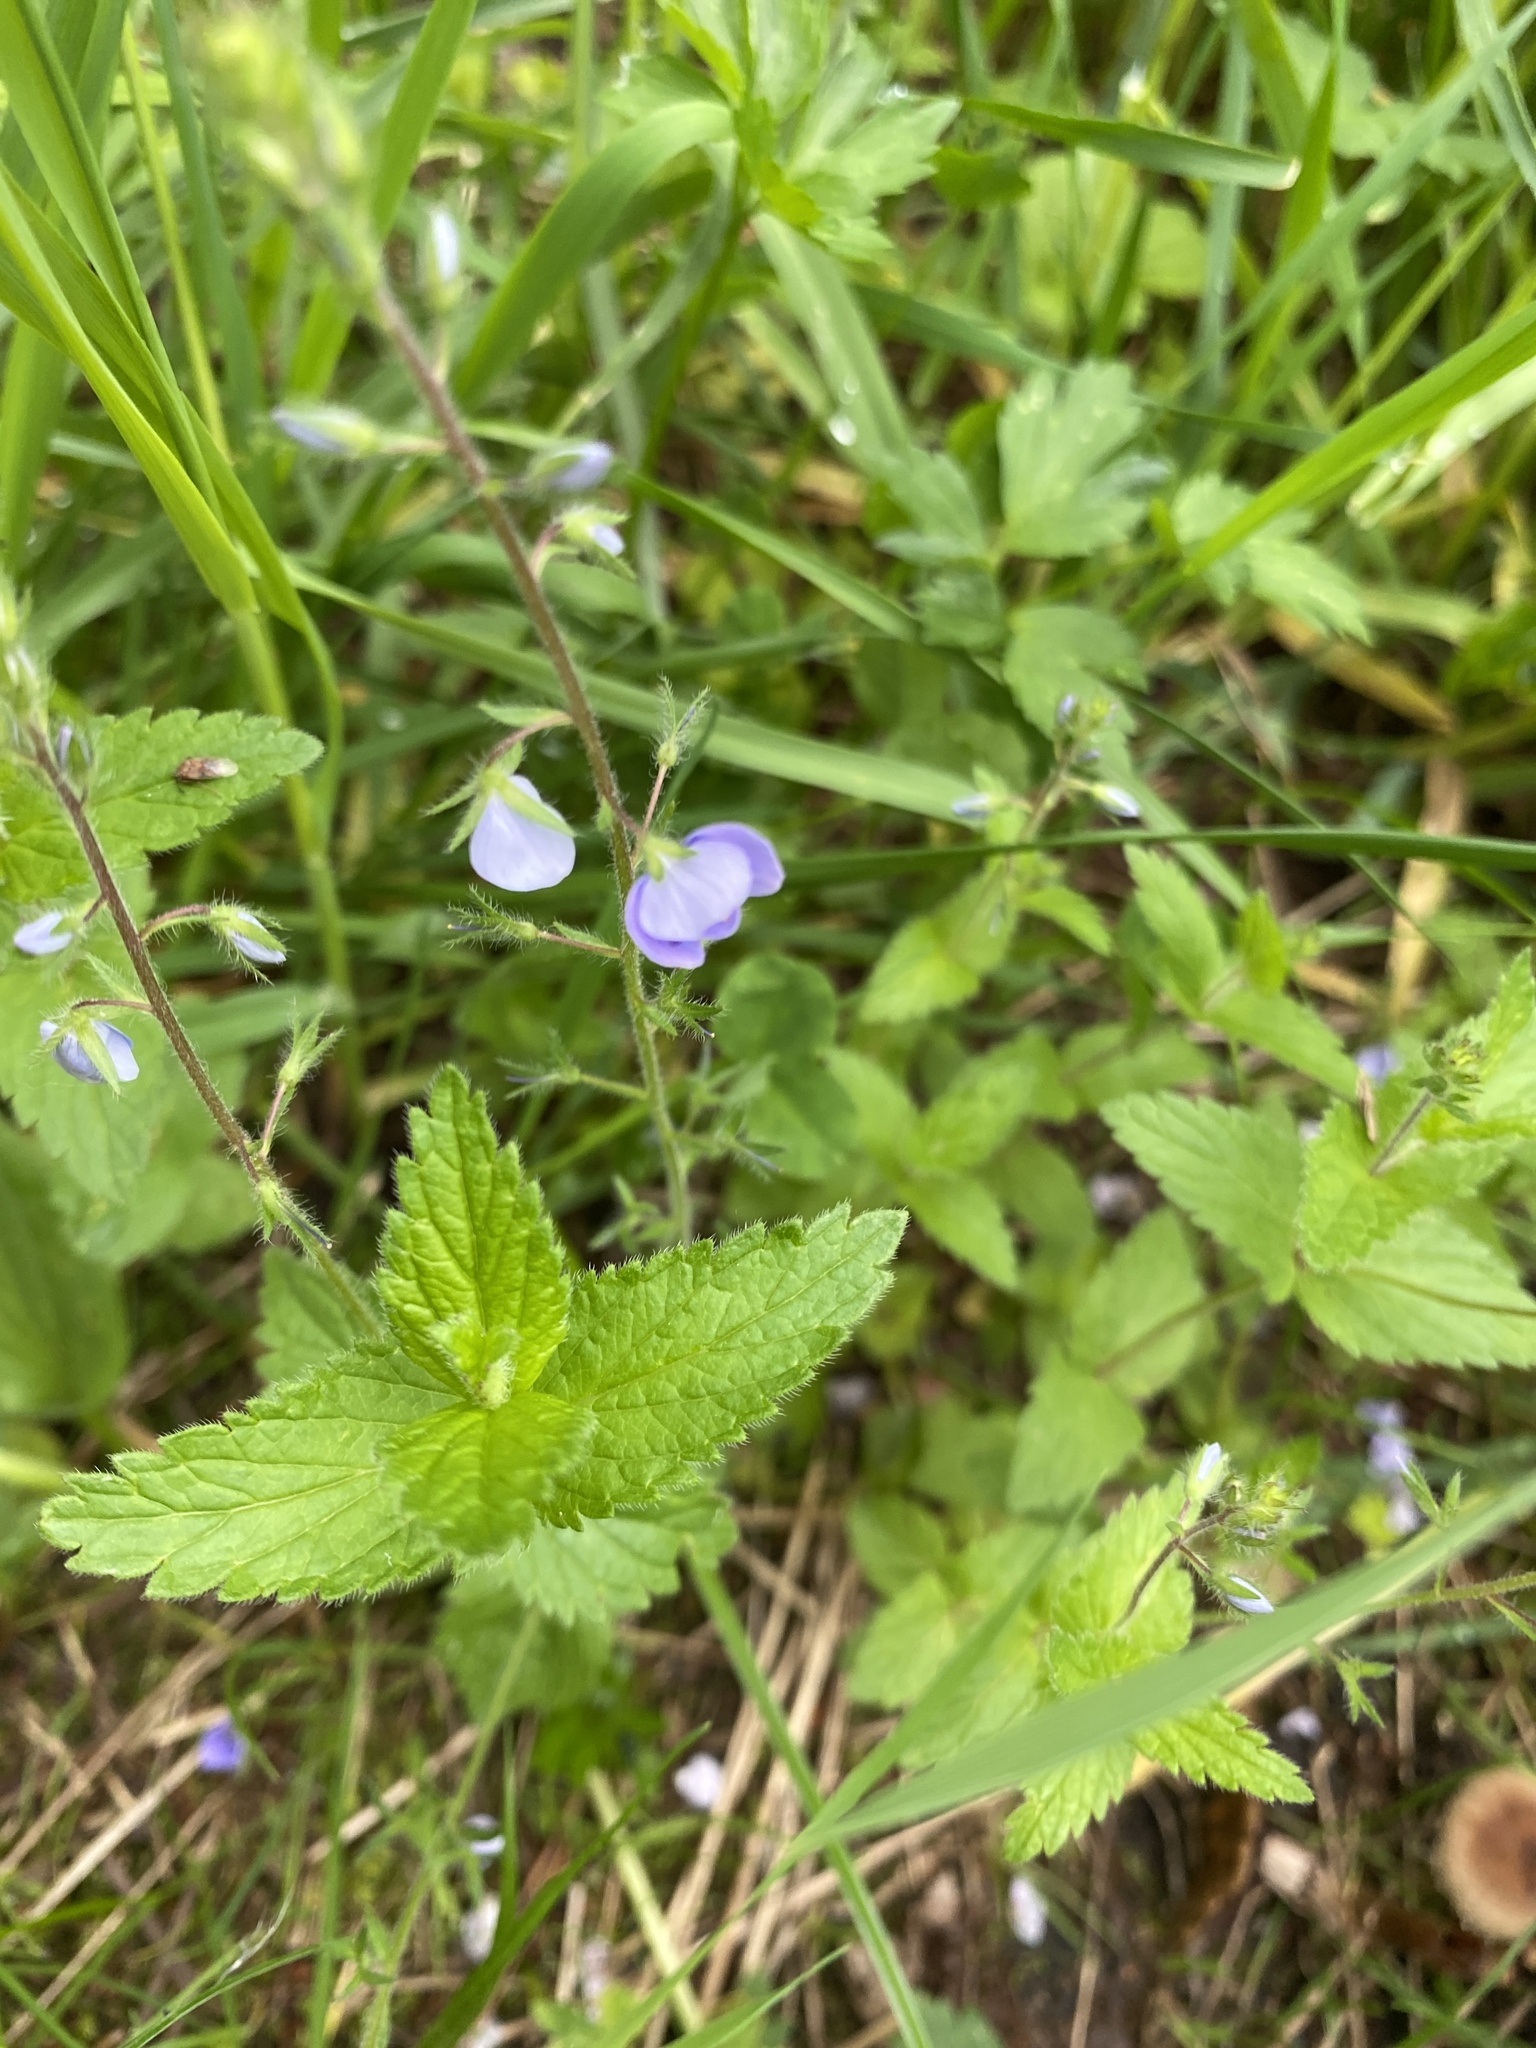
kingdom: Plantae
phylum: Tracheophyta
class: Magnoliopsida
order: Lamiales
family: Plantaginaceae
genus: Veronica
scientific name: Veronica chamaedrys
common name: Germander speedwell
